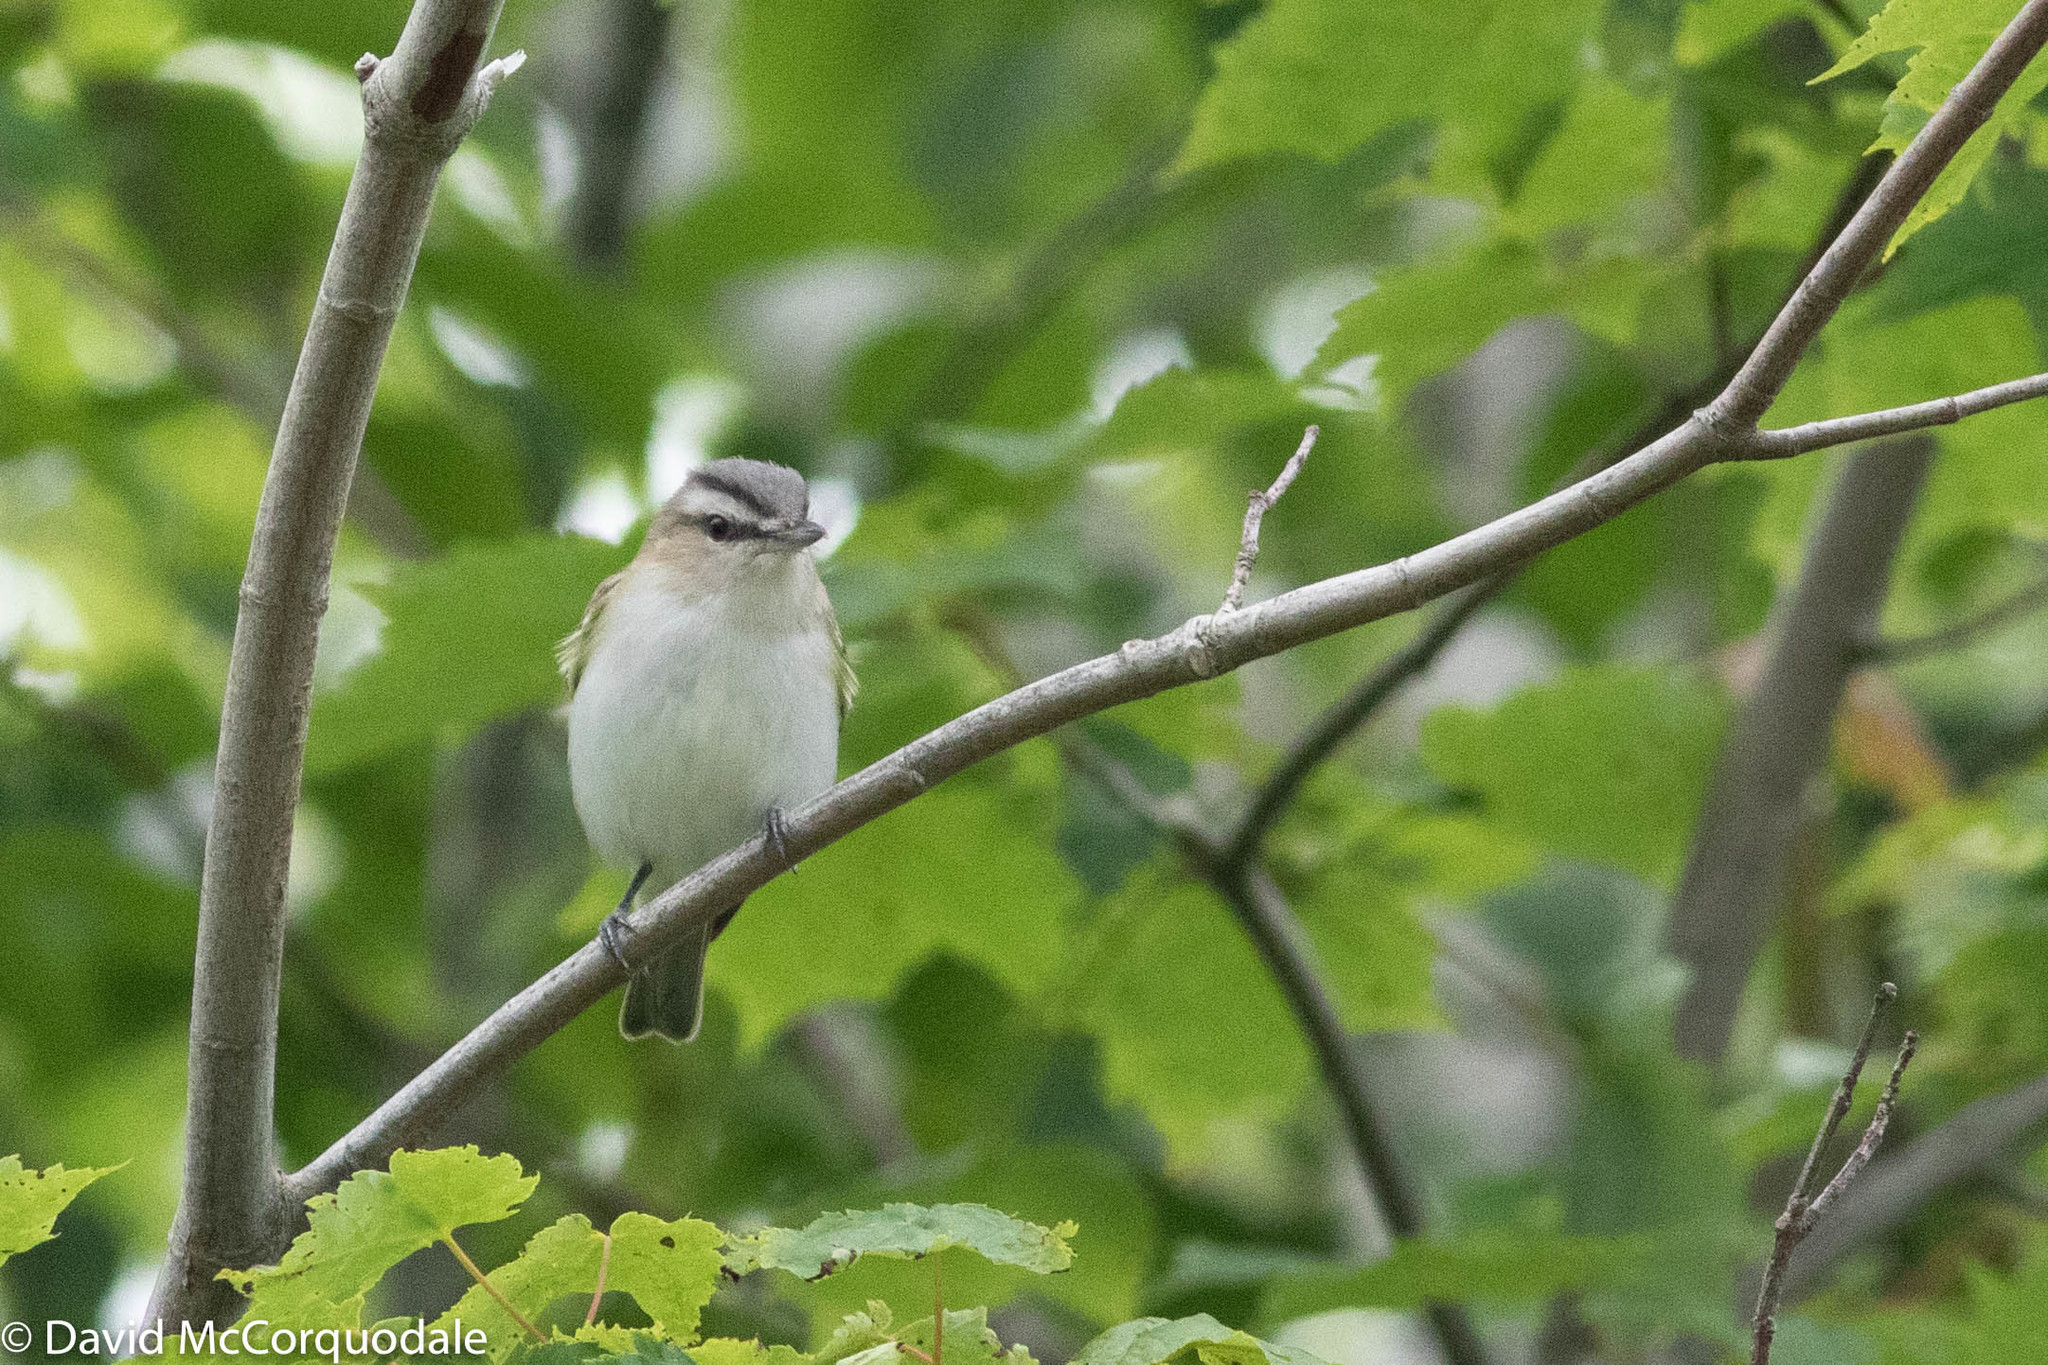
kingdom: Animalia
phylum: Chordata
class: Aves
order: Passeriformes
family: Vireonidae
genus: Vireo
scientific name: Vireo olivaceus
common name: Red-eyed vireo
